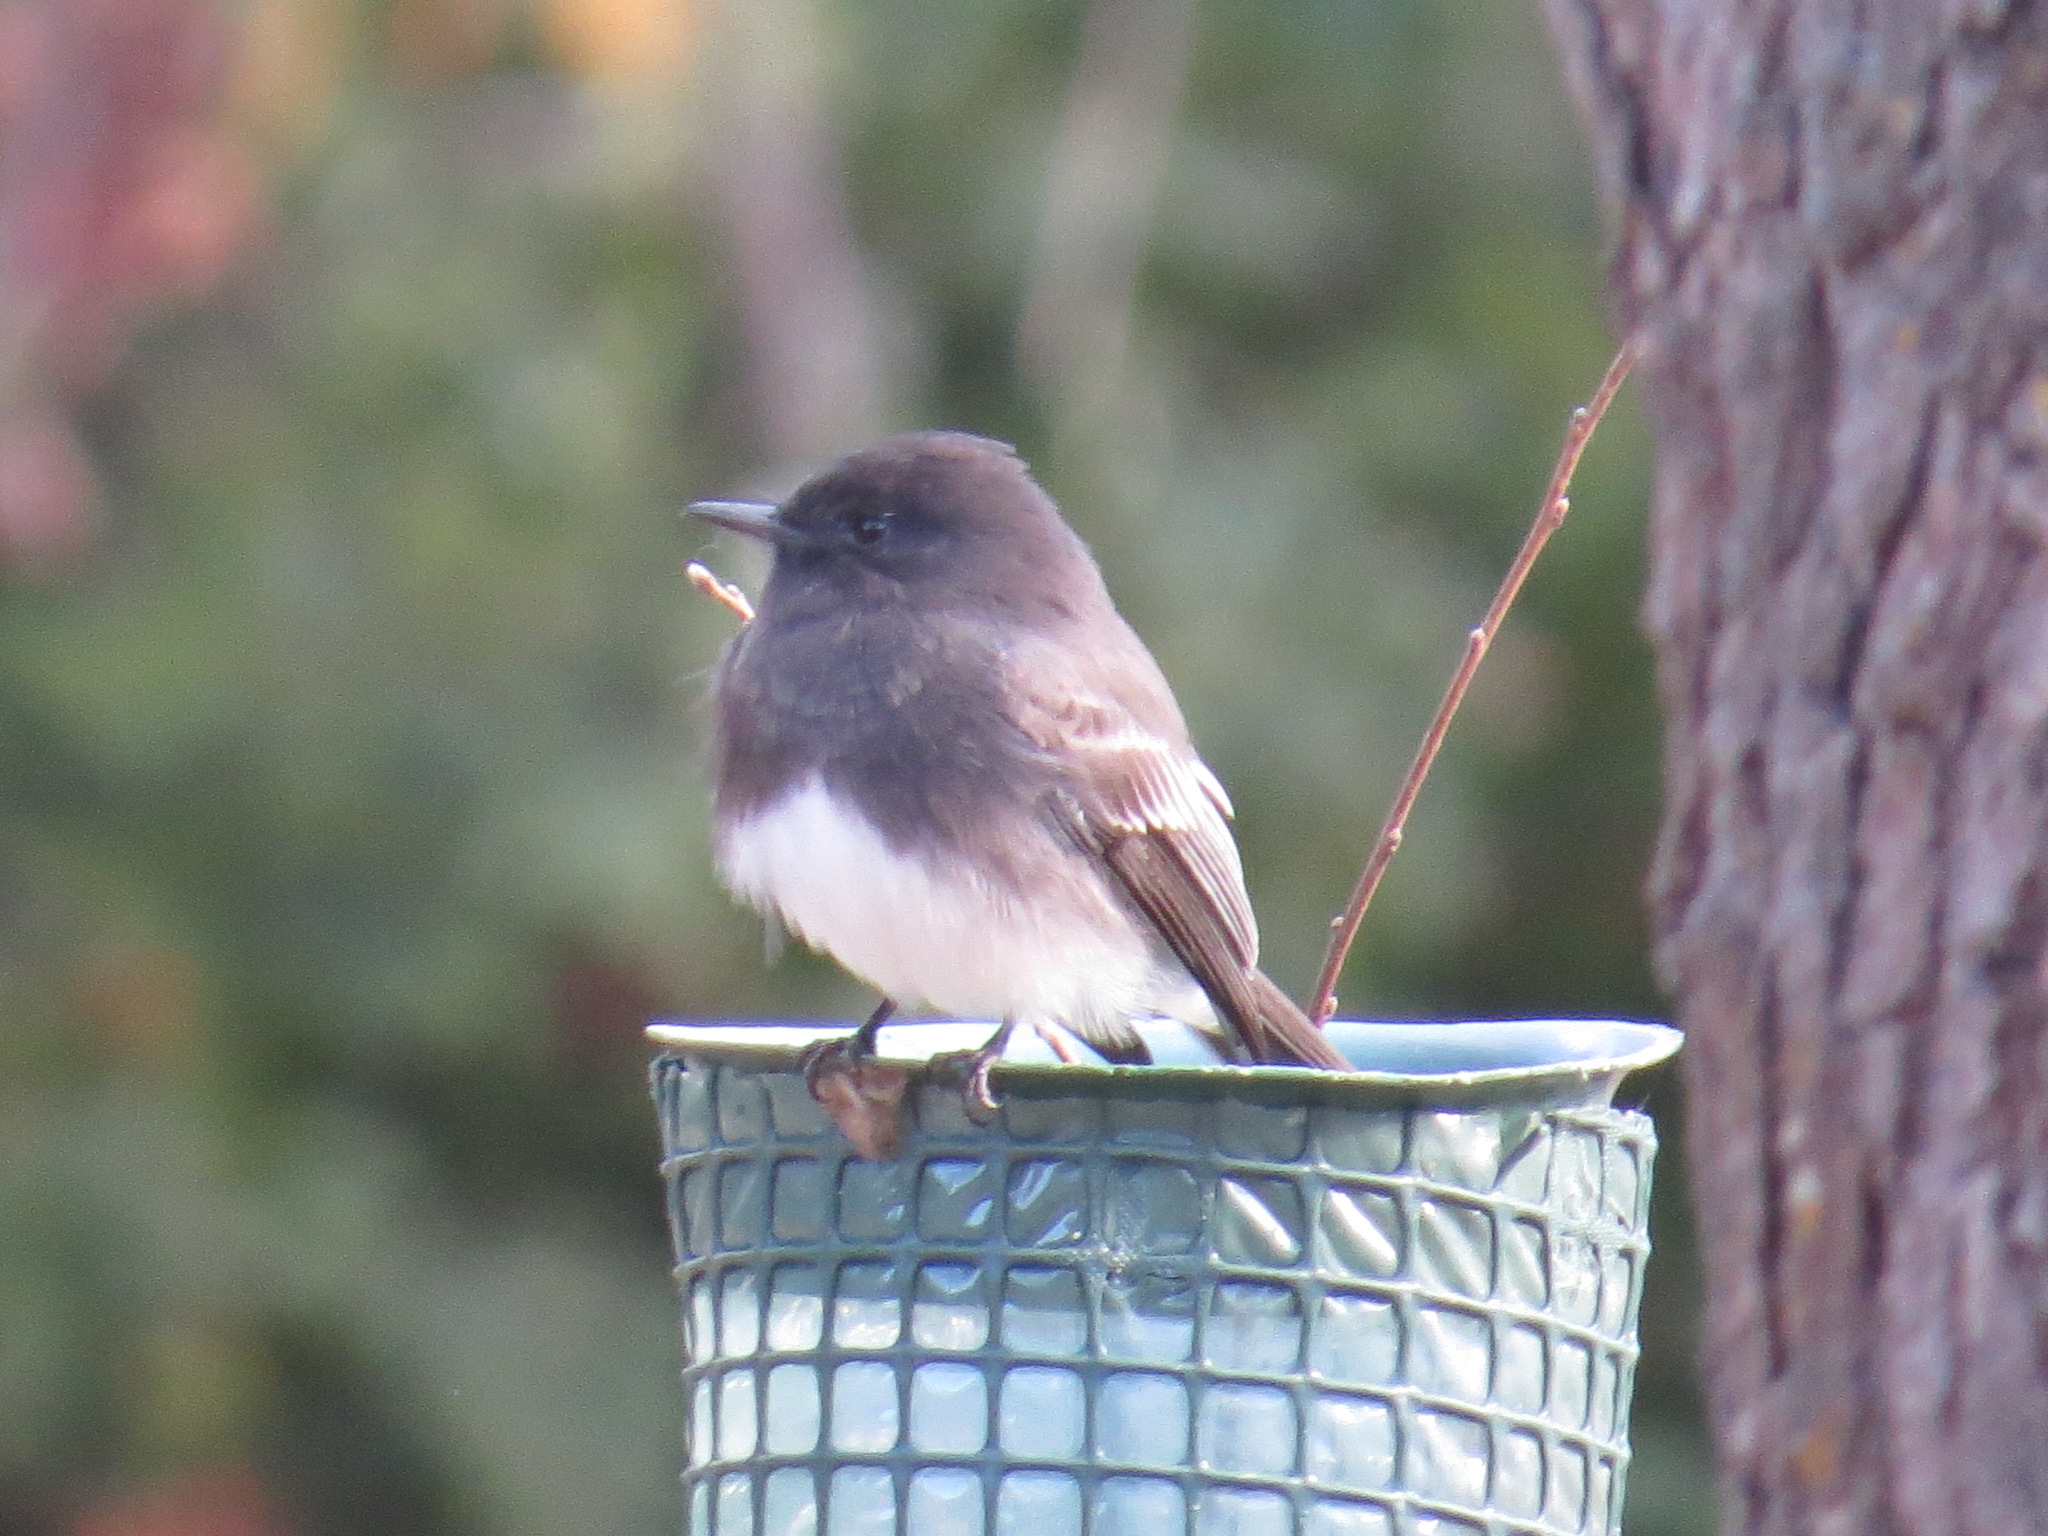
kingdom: Animalia
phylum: Chordata
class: Aves
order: Passeriformes
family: Tyrannidae
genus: Sayornis
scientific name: Sayornis nigricans
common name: Black phoebe
